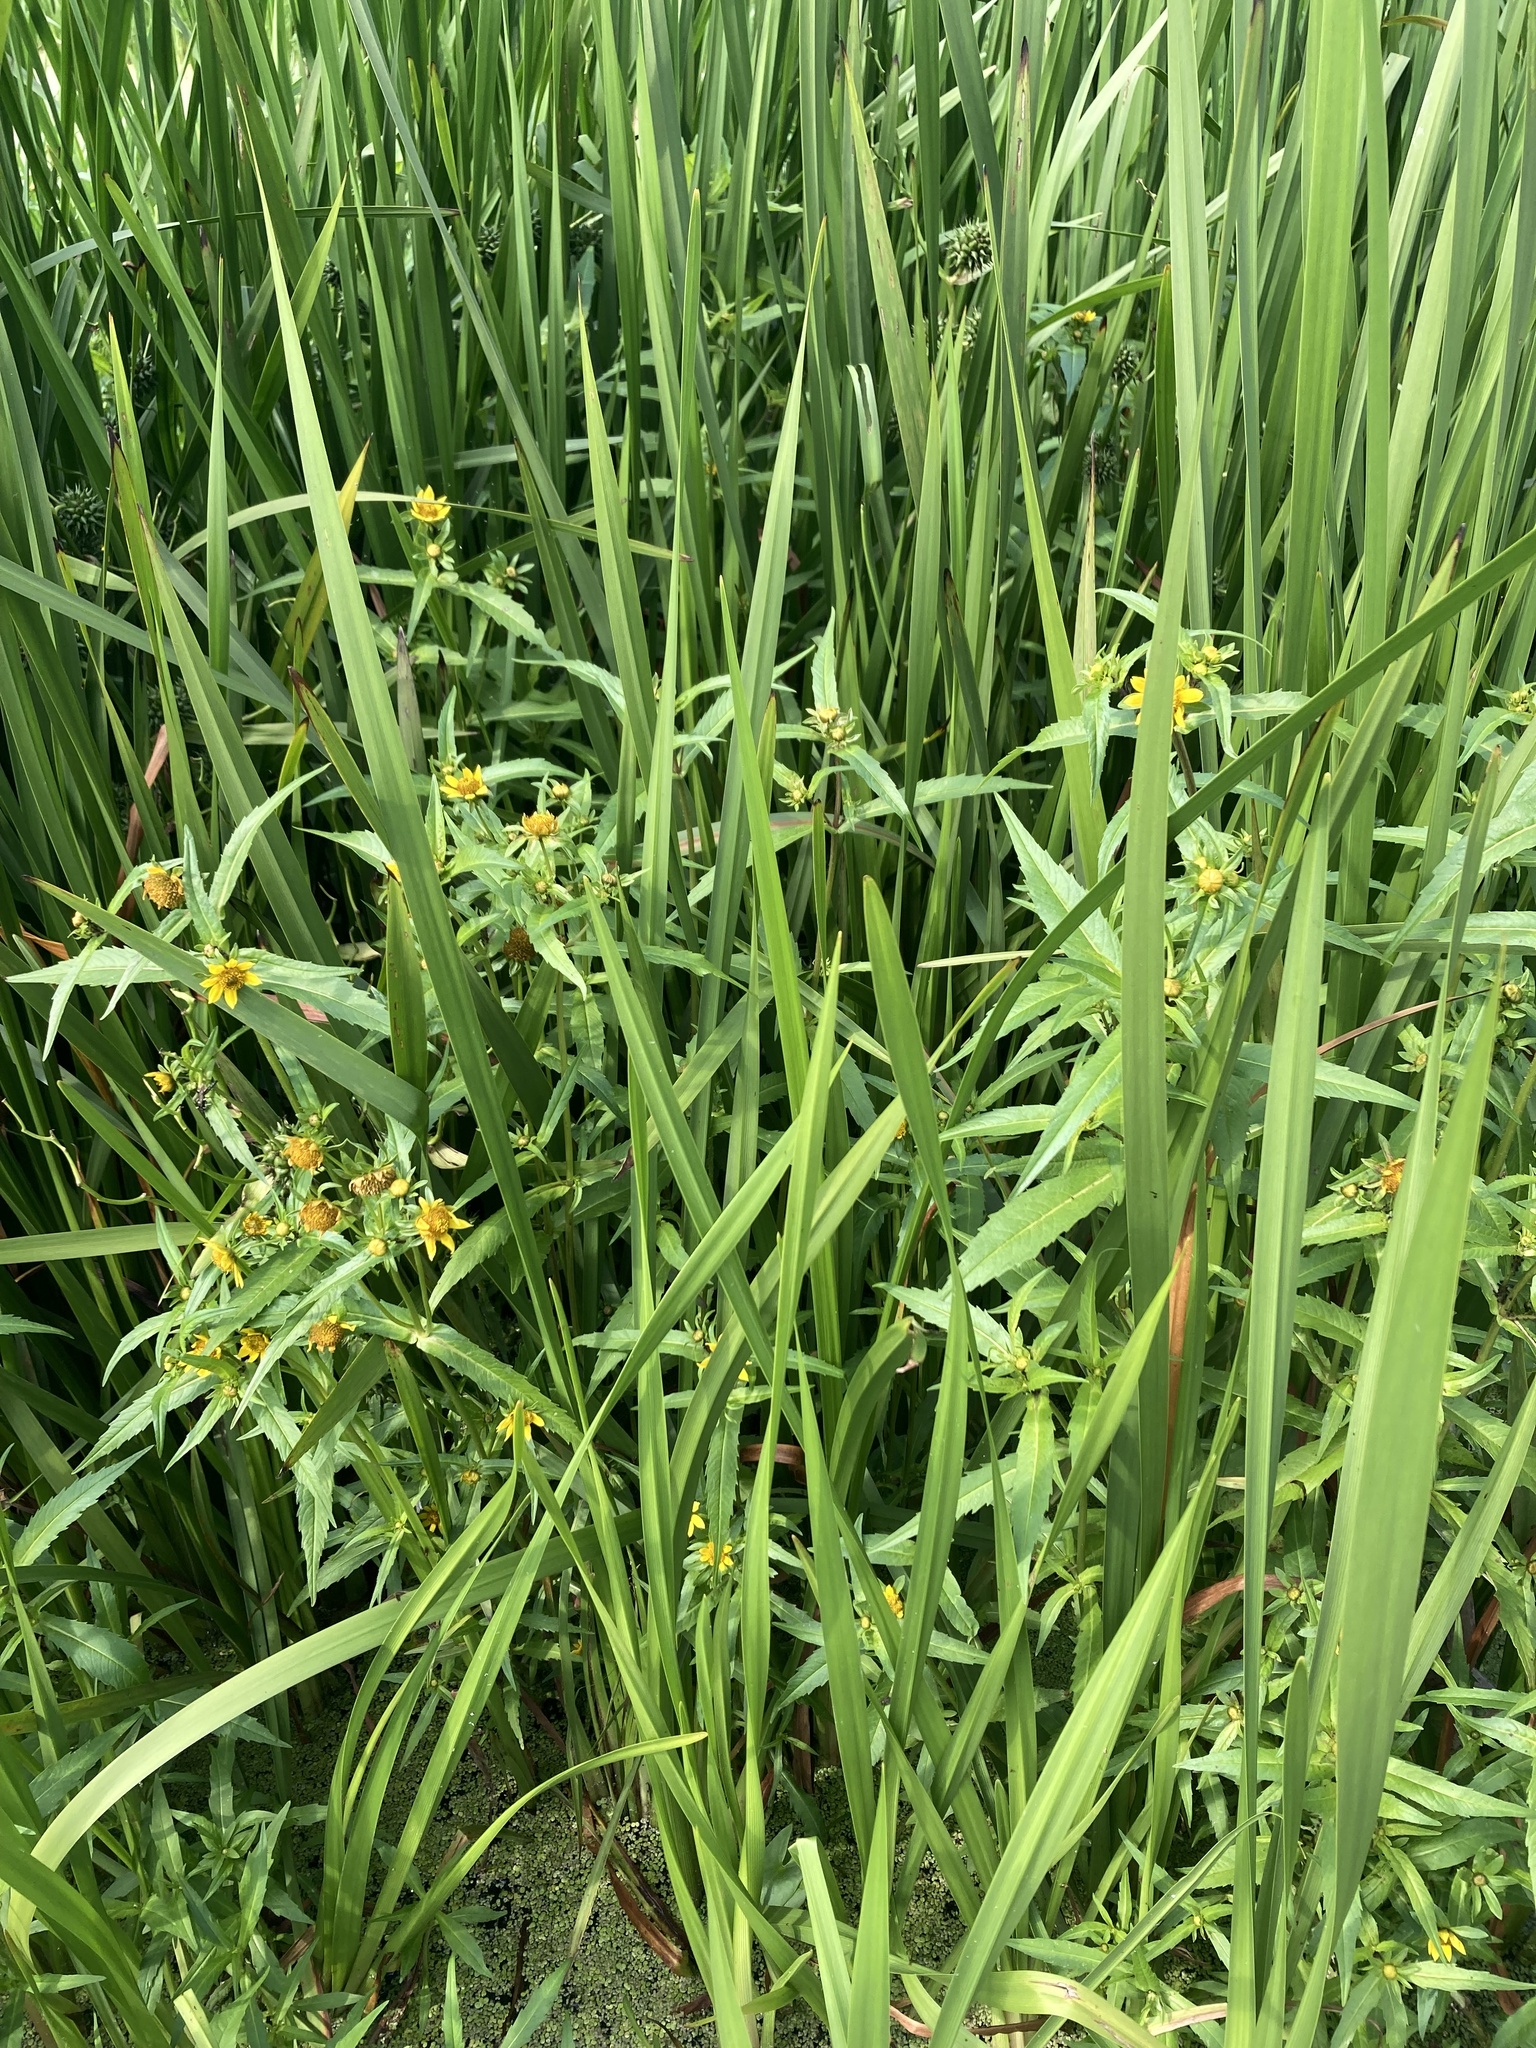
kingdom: Plantae
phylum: Tracheophyta
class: Magnoliopsida
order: Asterales
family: Asteraceae
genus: Bidens
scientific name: Bidens cernua
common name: Nodding bur-marigold
